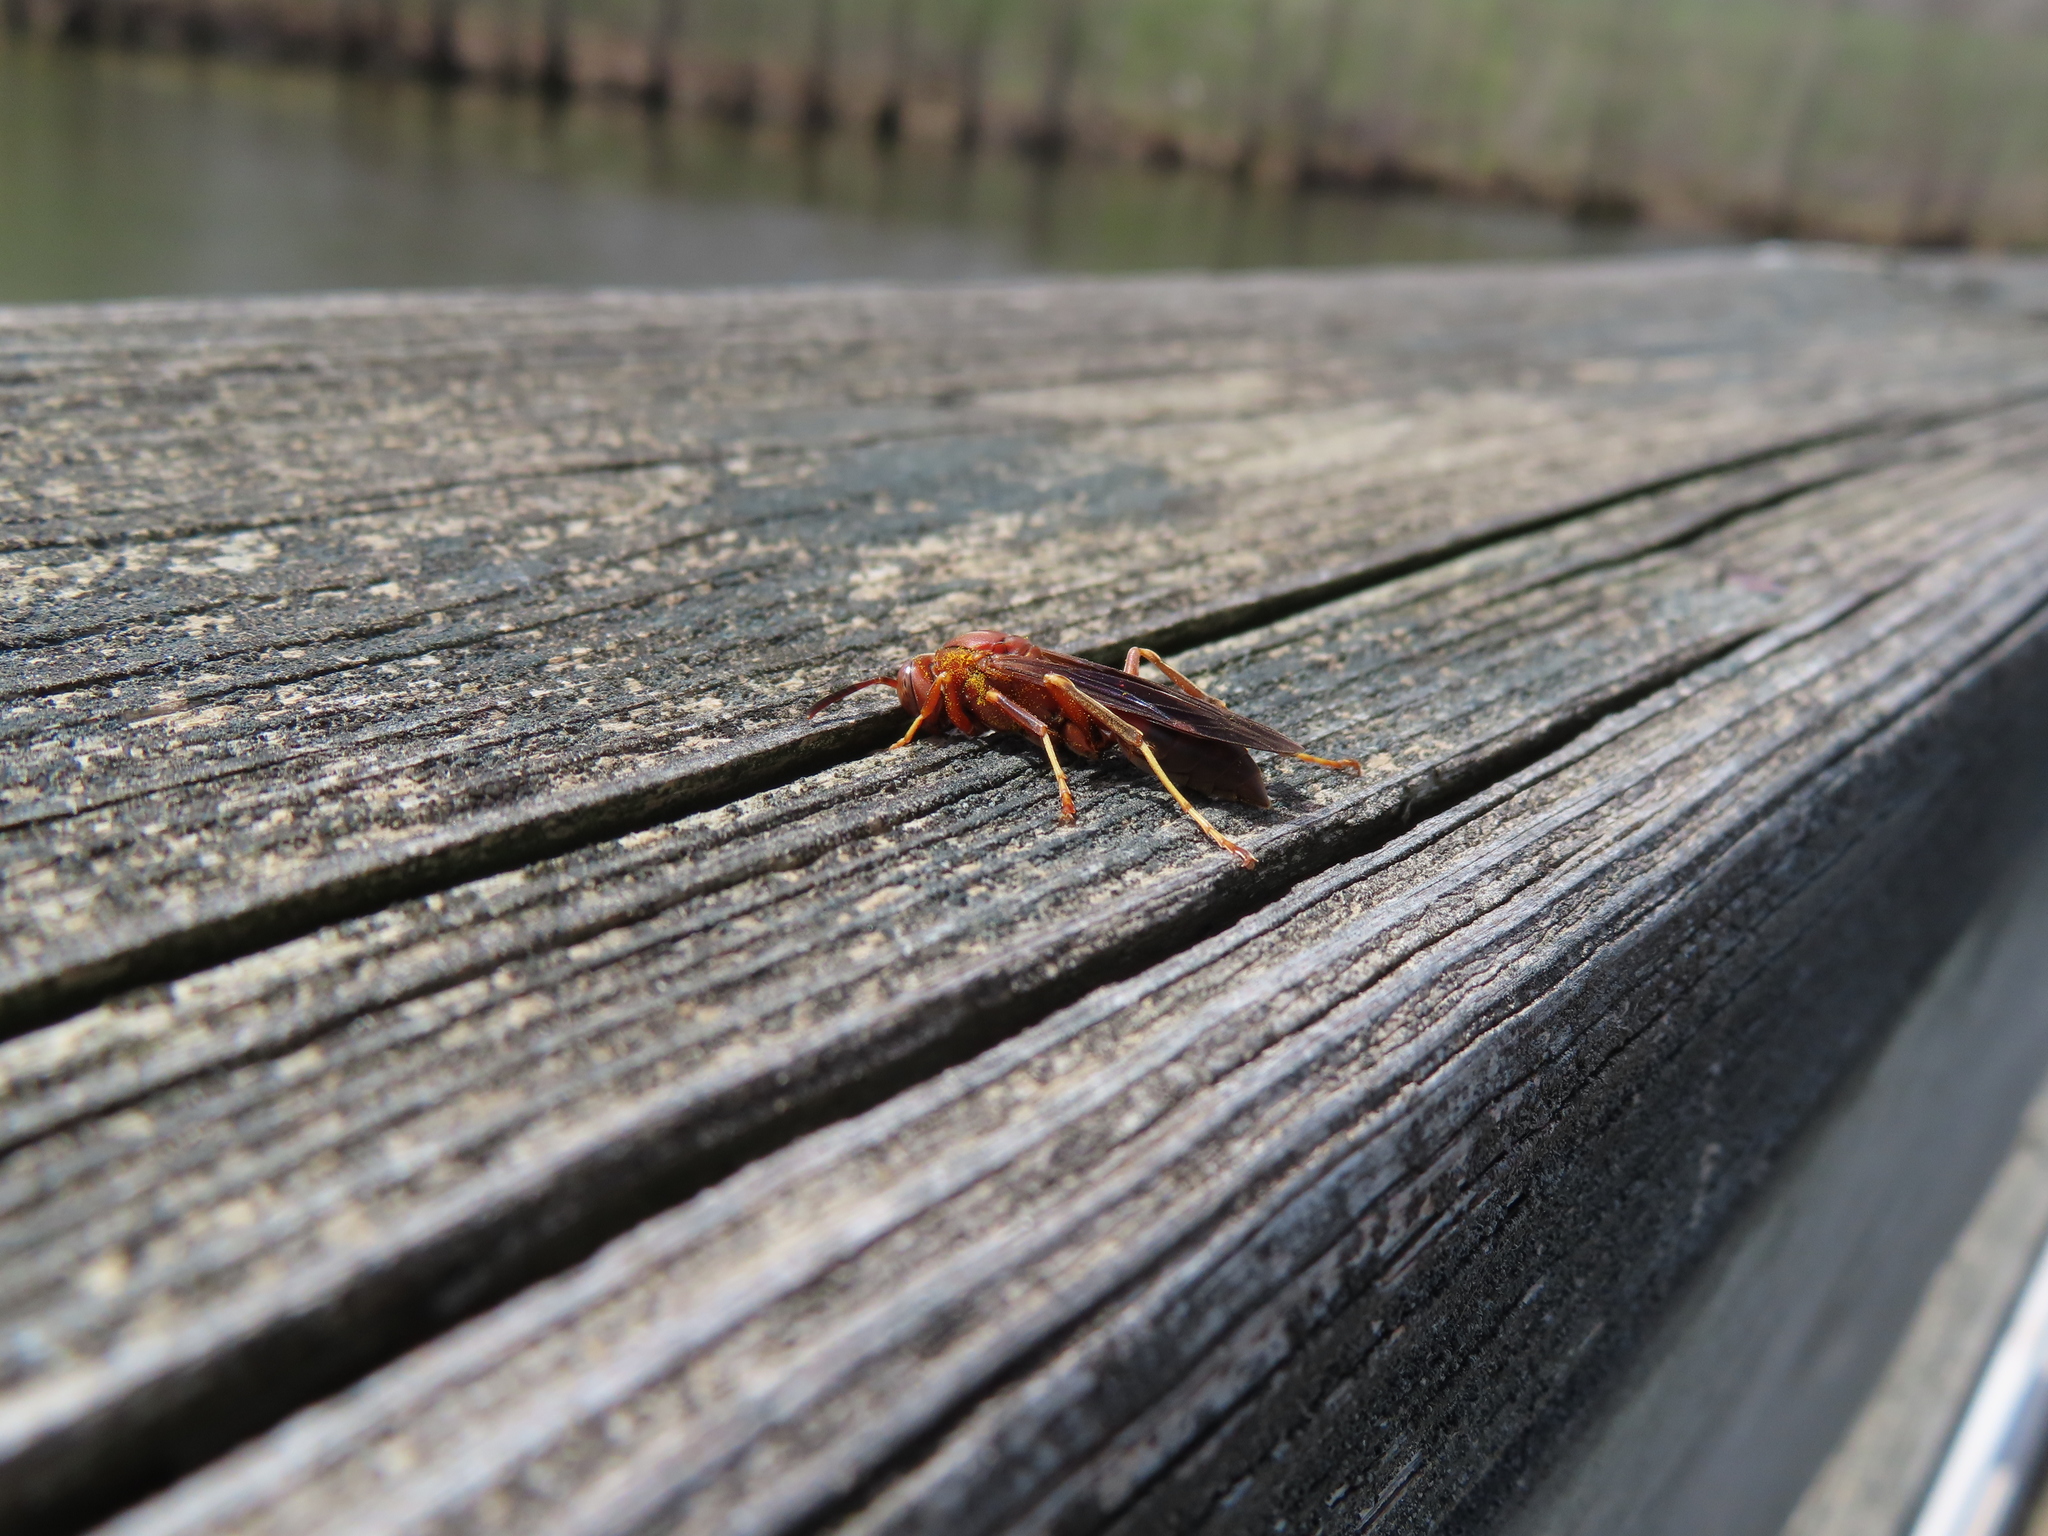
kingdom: Animalia
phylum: Arthropoda
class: Insecta
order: Hymenoptera
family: Vespidae
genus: Fuscopolistes
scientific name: Fuscopolistes
